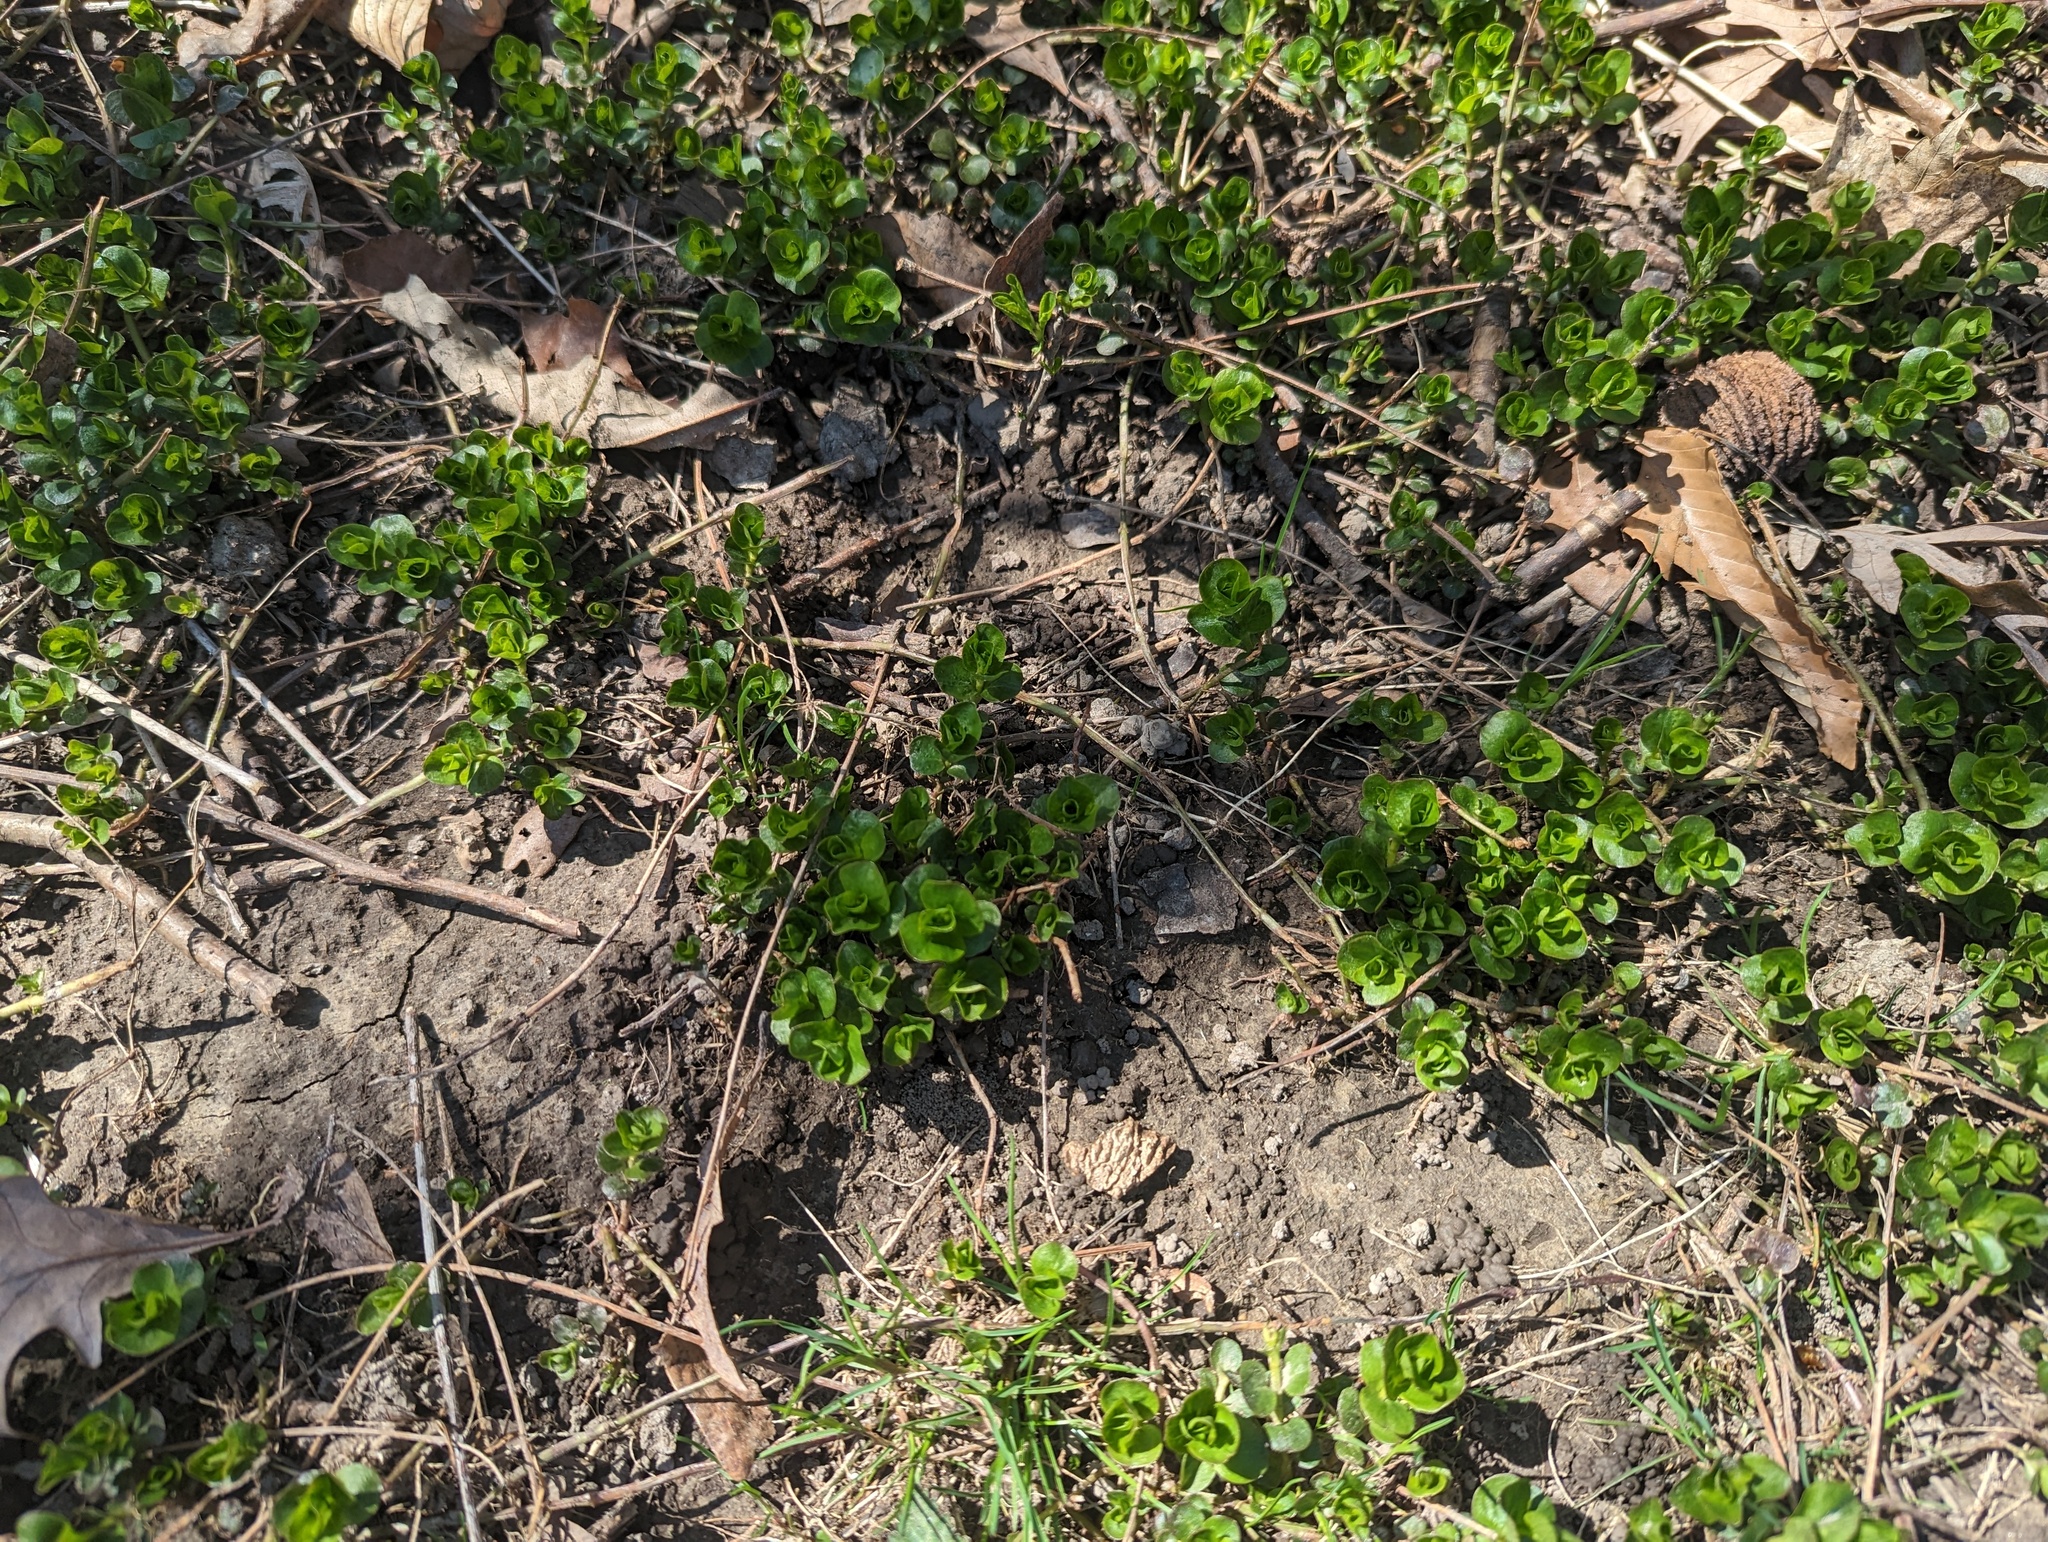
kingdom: Plantae
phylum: Tracheophyta
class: Magnoliopsida
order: Ericales
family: Primulaceae
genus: Lysimachia
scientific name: Lysimachia nummularia
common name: Moneywort
